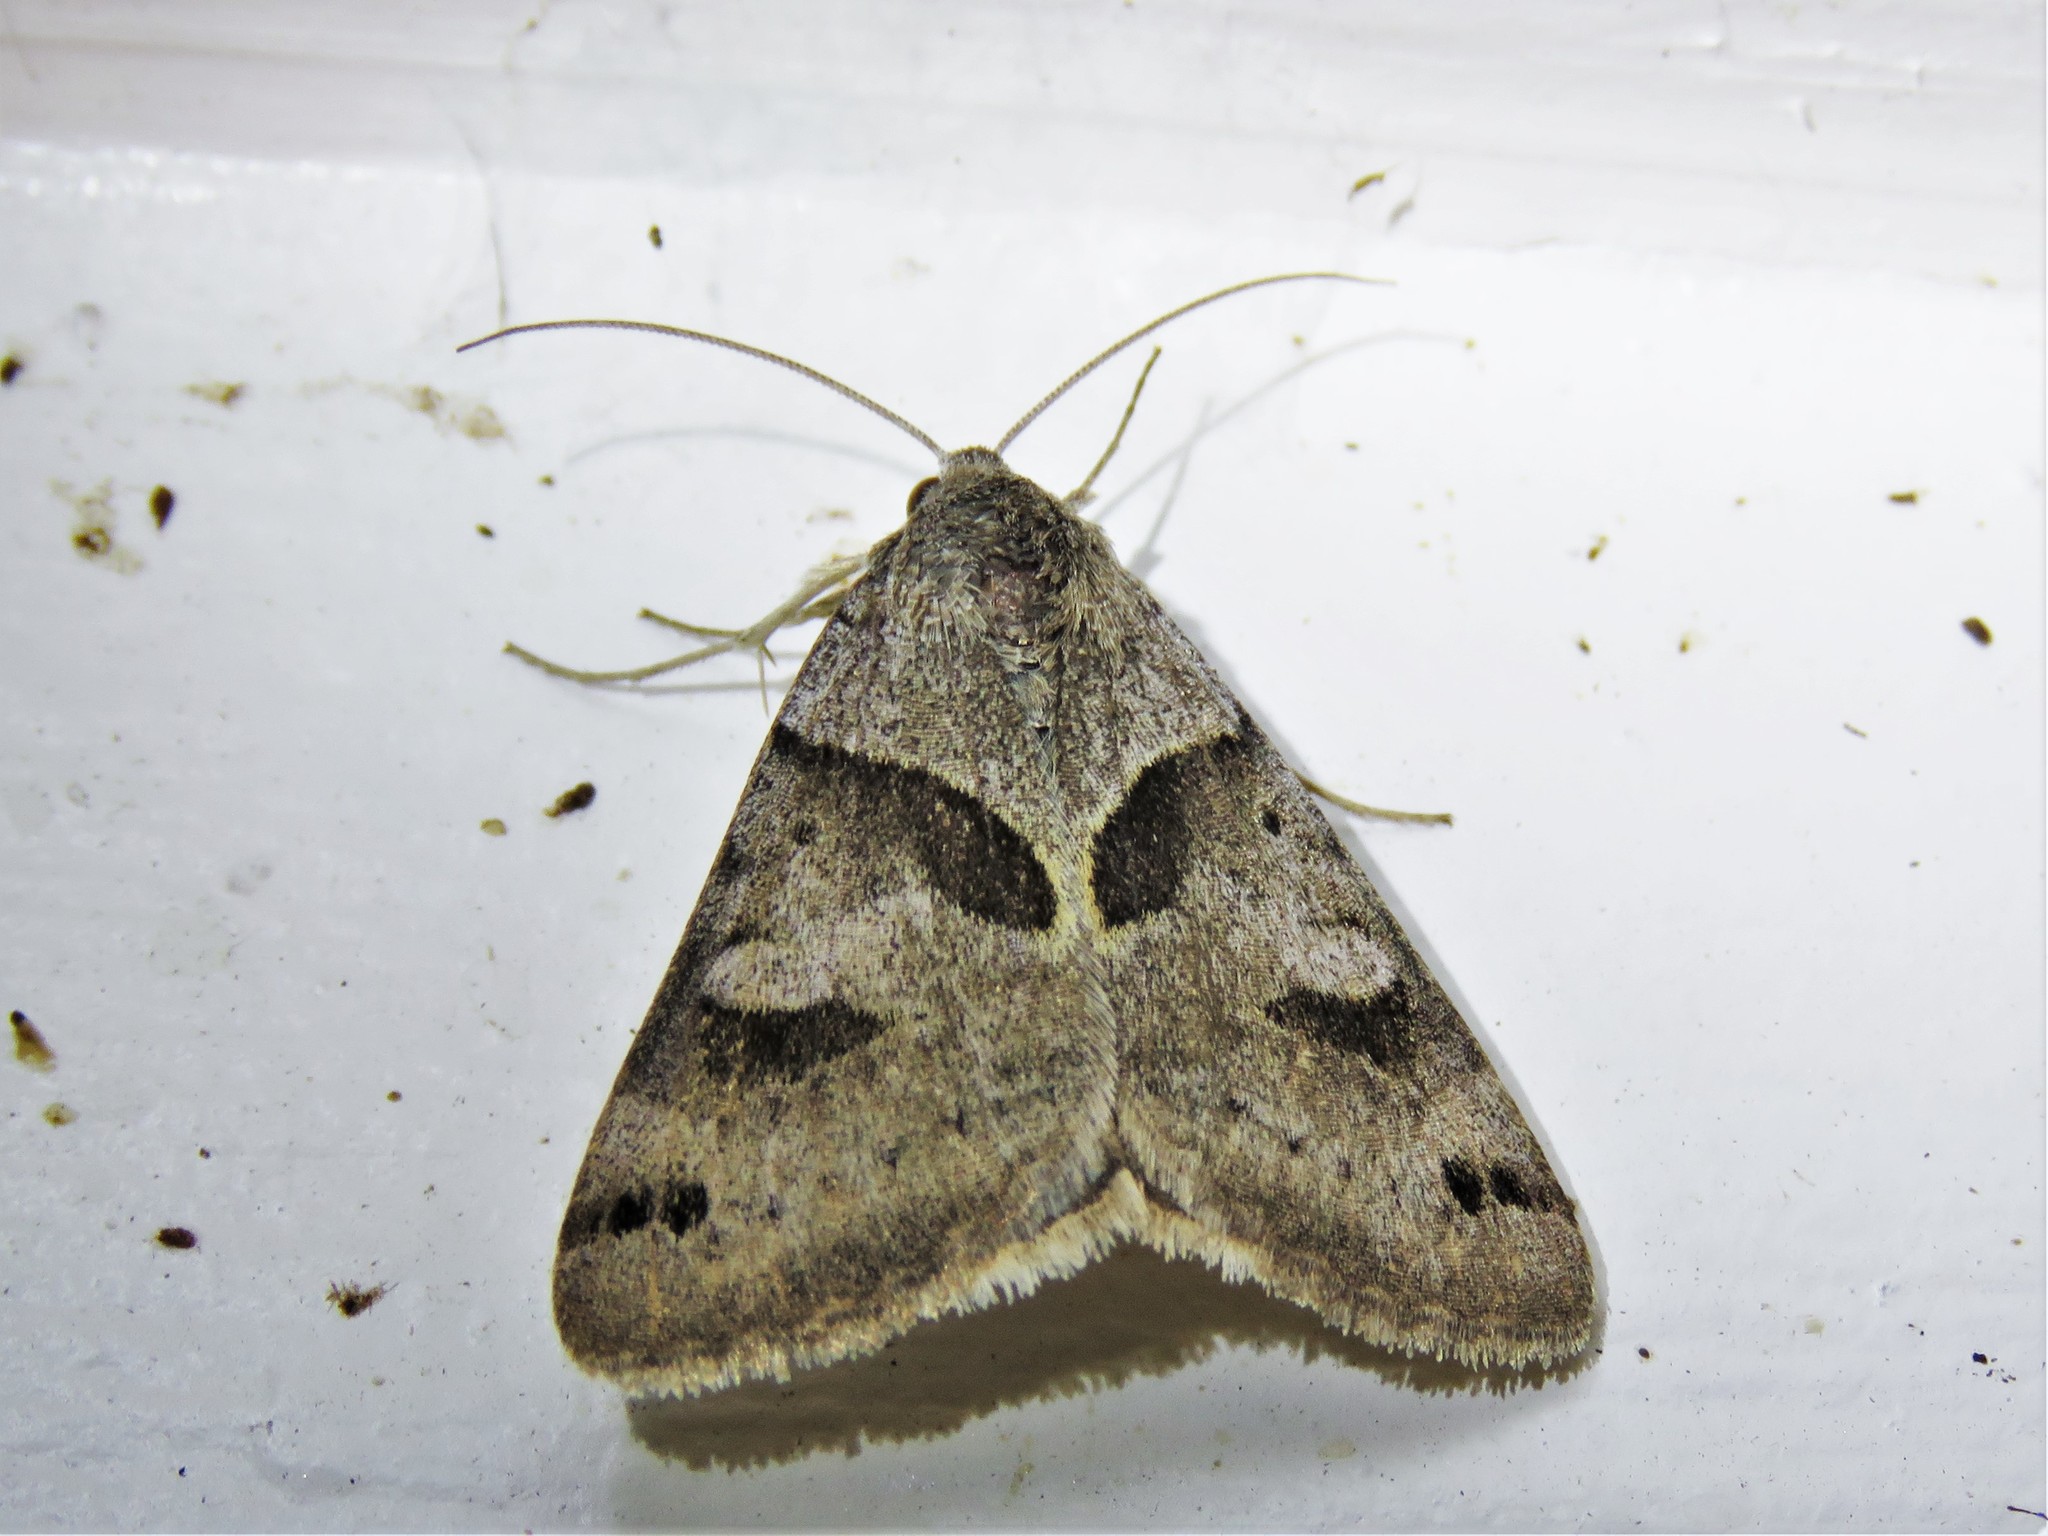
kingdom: Animalia
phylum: Arthropoda
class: Insecta
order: Lepidoptera
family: Erebidae
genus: Caenurgina
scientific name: Caenurgina erechtea
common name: Forage looper moth
